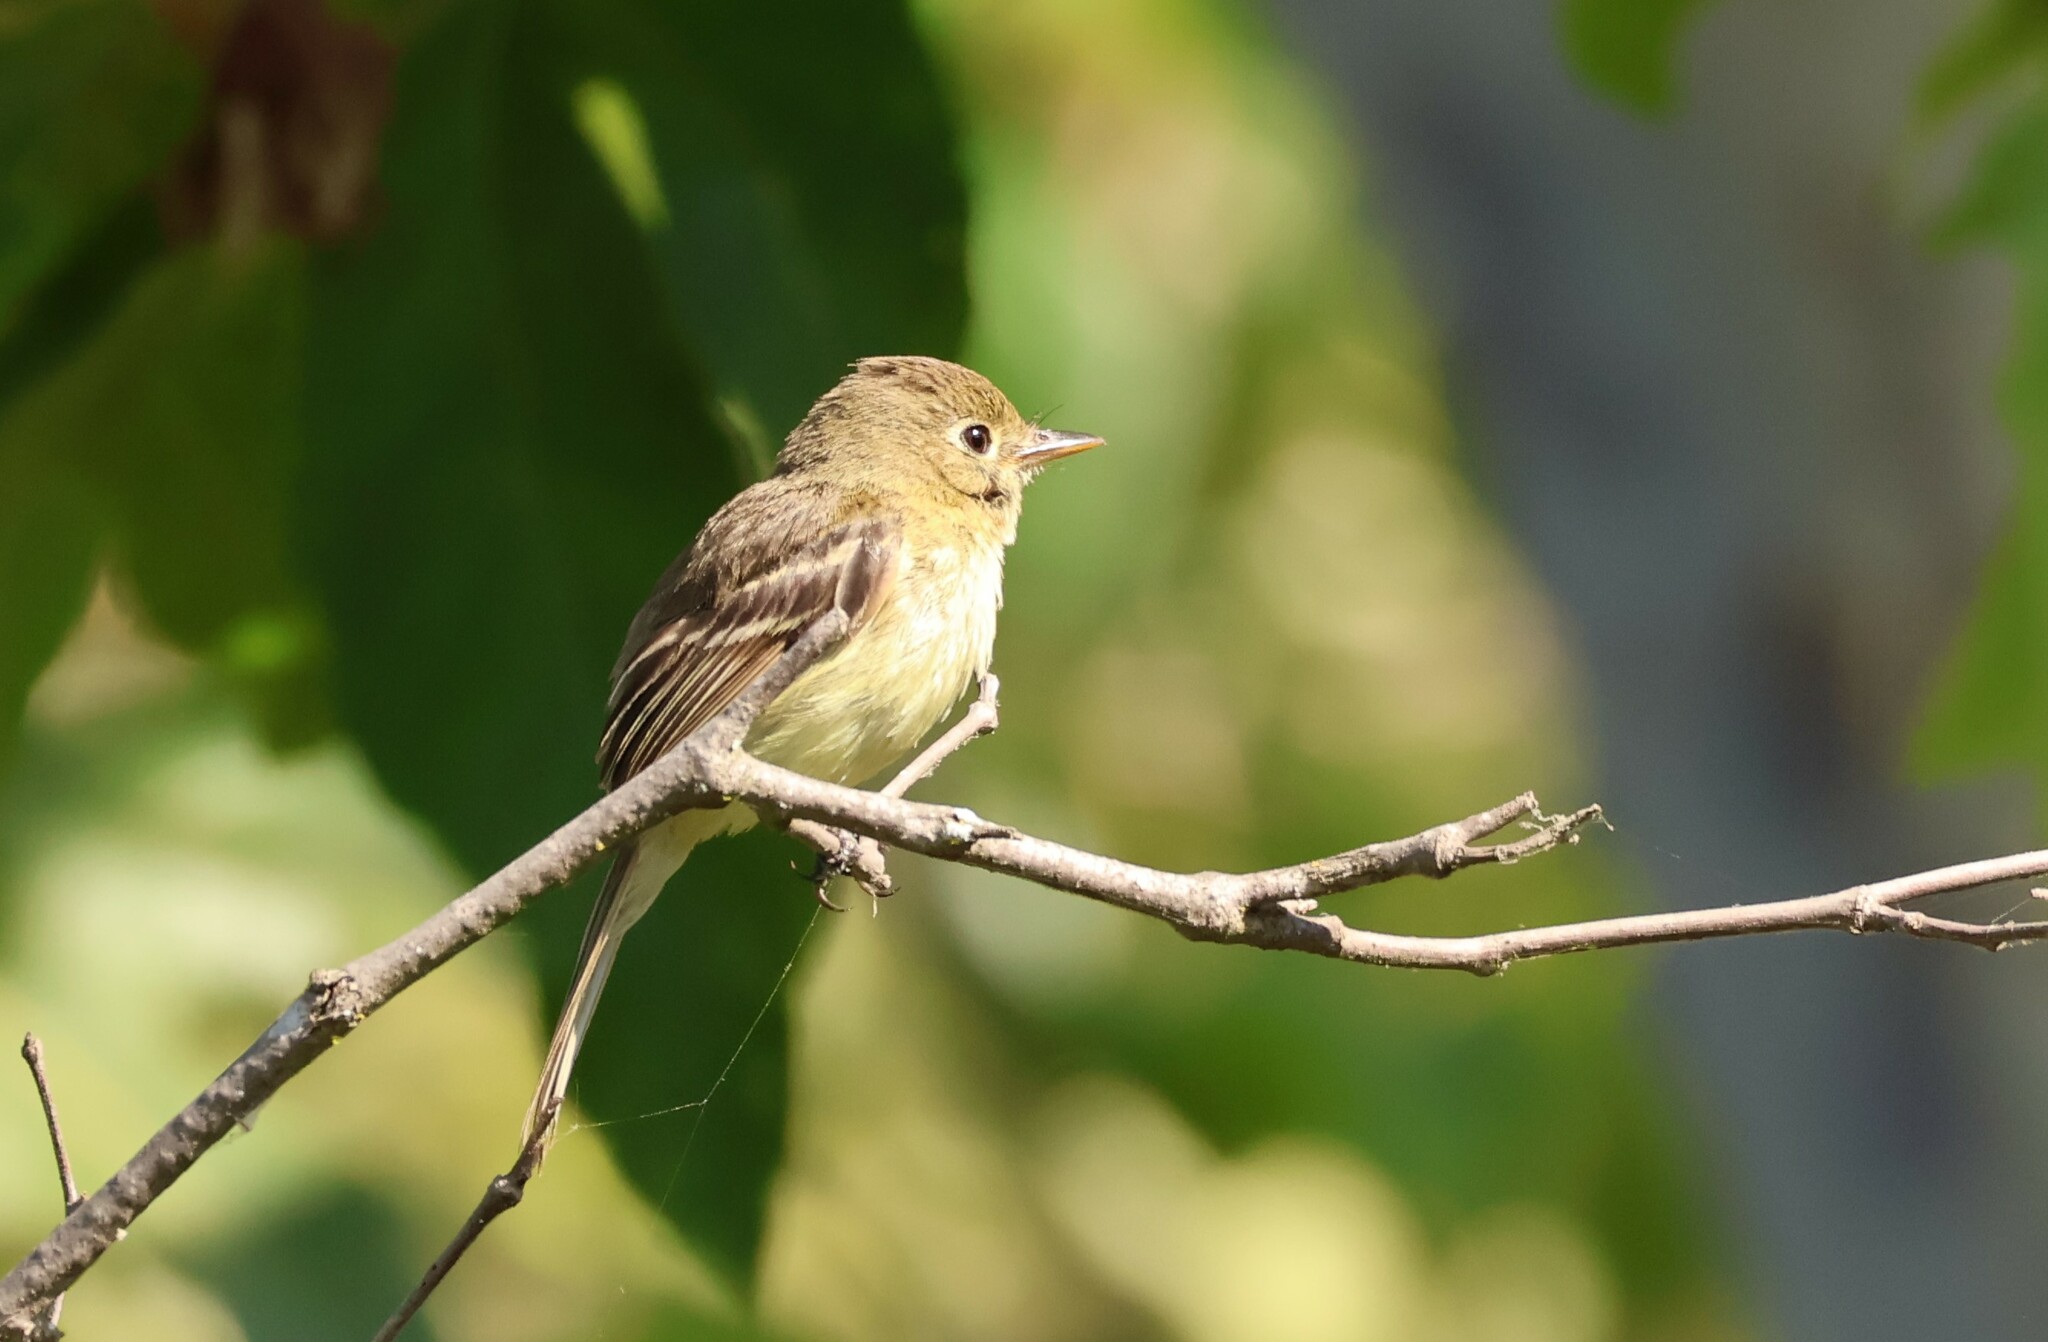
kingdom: Animalia
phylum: Chordata
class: Aves
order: Passeriformes
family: Tyrannidae
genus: Empidonax
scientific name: Empidonax difficilis
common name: Pacific-slope flycatcher
